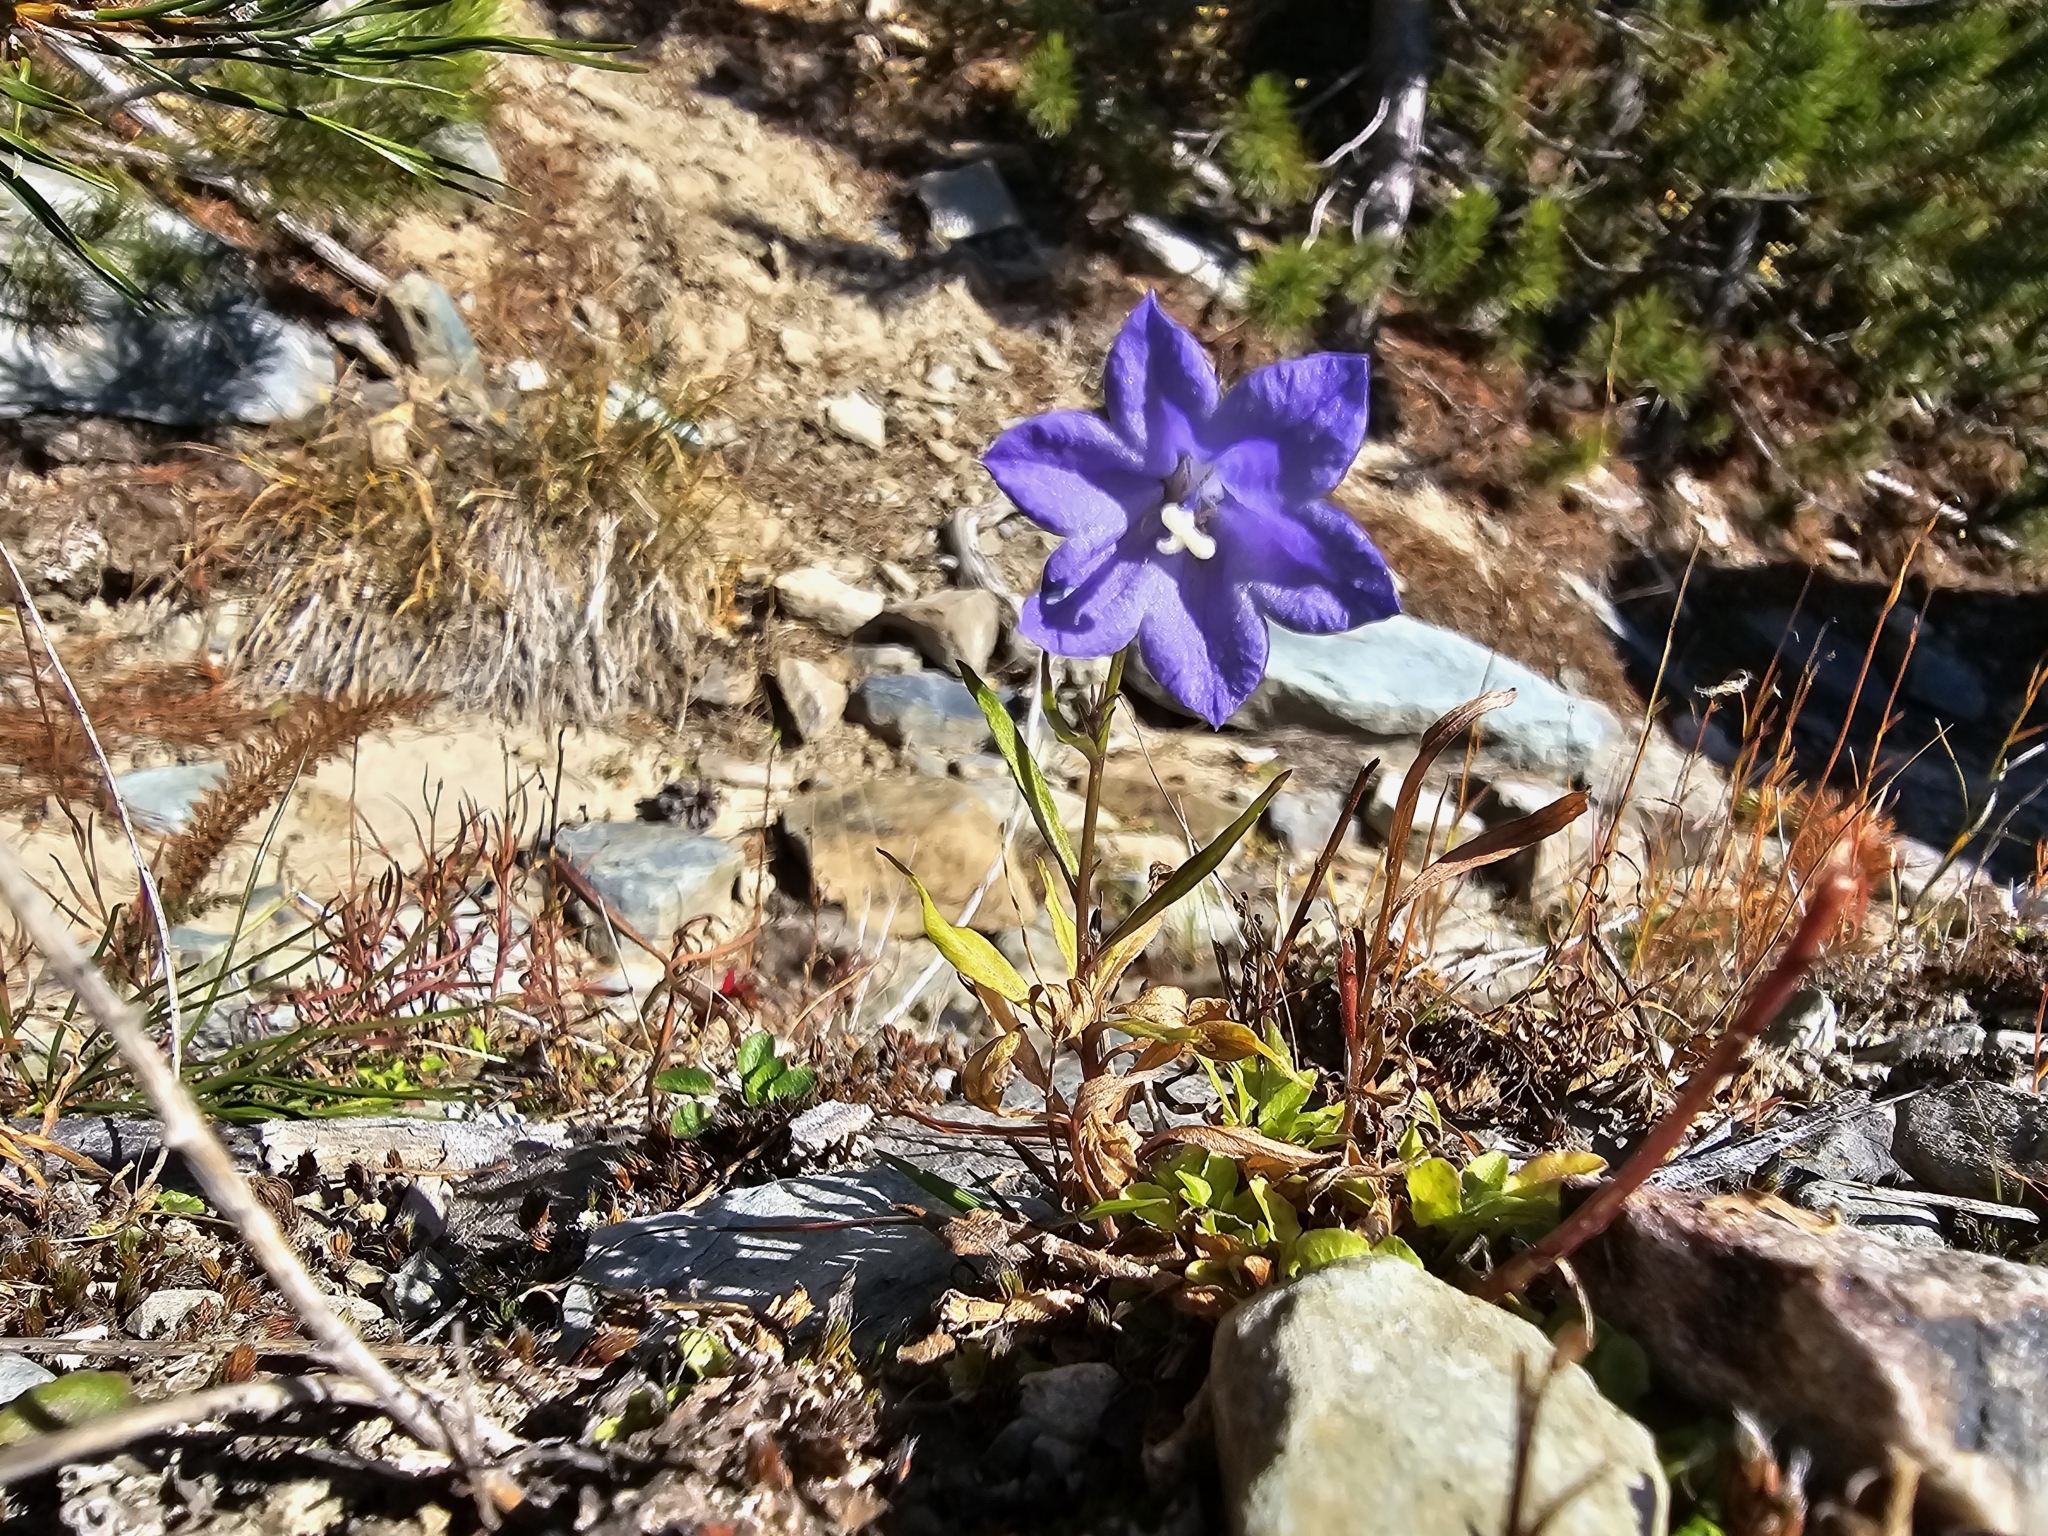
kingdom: Plantae
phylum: Tracheophyta
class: Magnoliopsida
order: Asterales
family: Campanulaceae
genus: Campanula
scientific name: Campanula alaskana
